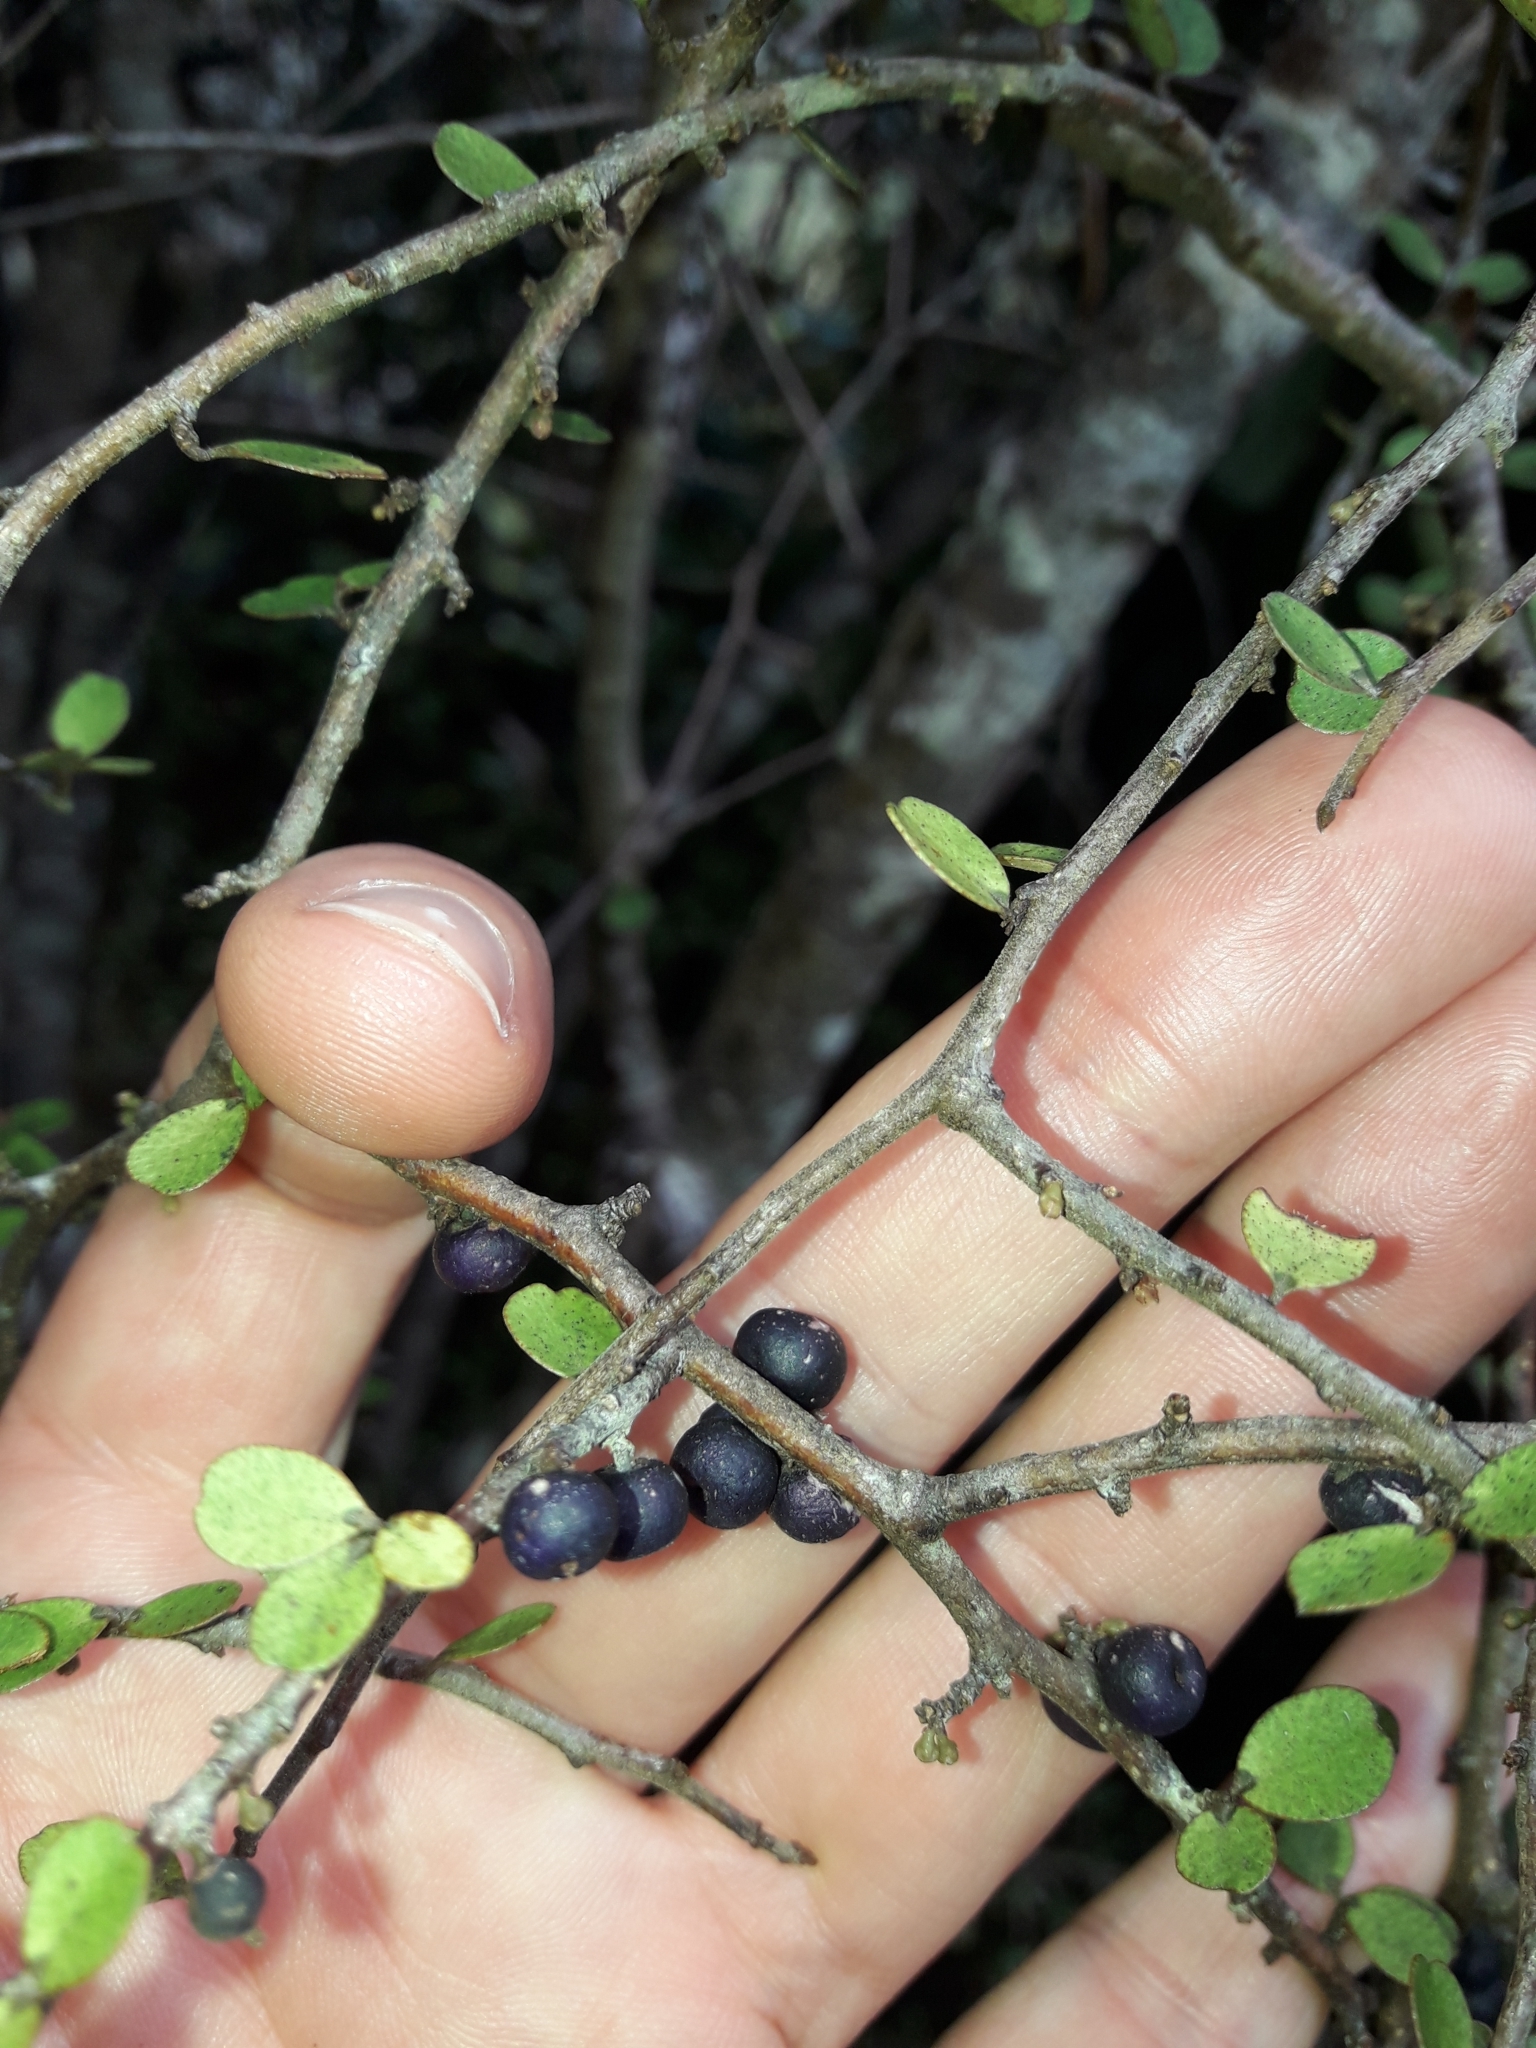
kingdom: Plantae
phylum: Tracheophyta
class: Magnoliopsida
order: Ericales
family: Primulaceae
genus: Myrsine
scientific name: Myrsine divaricata
